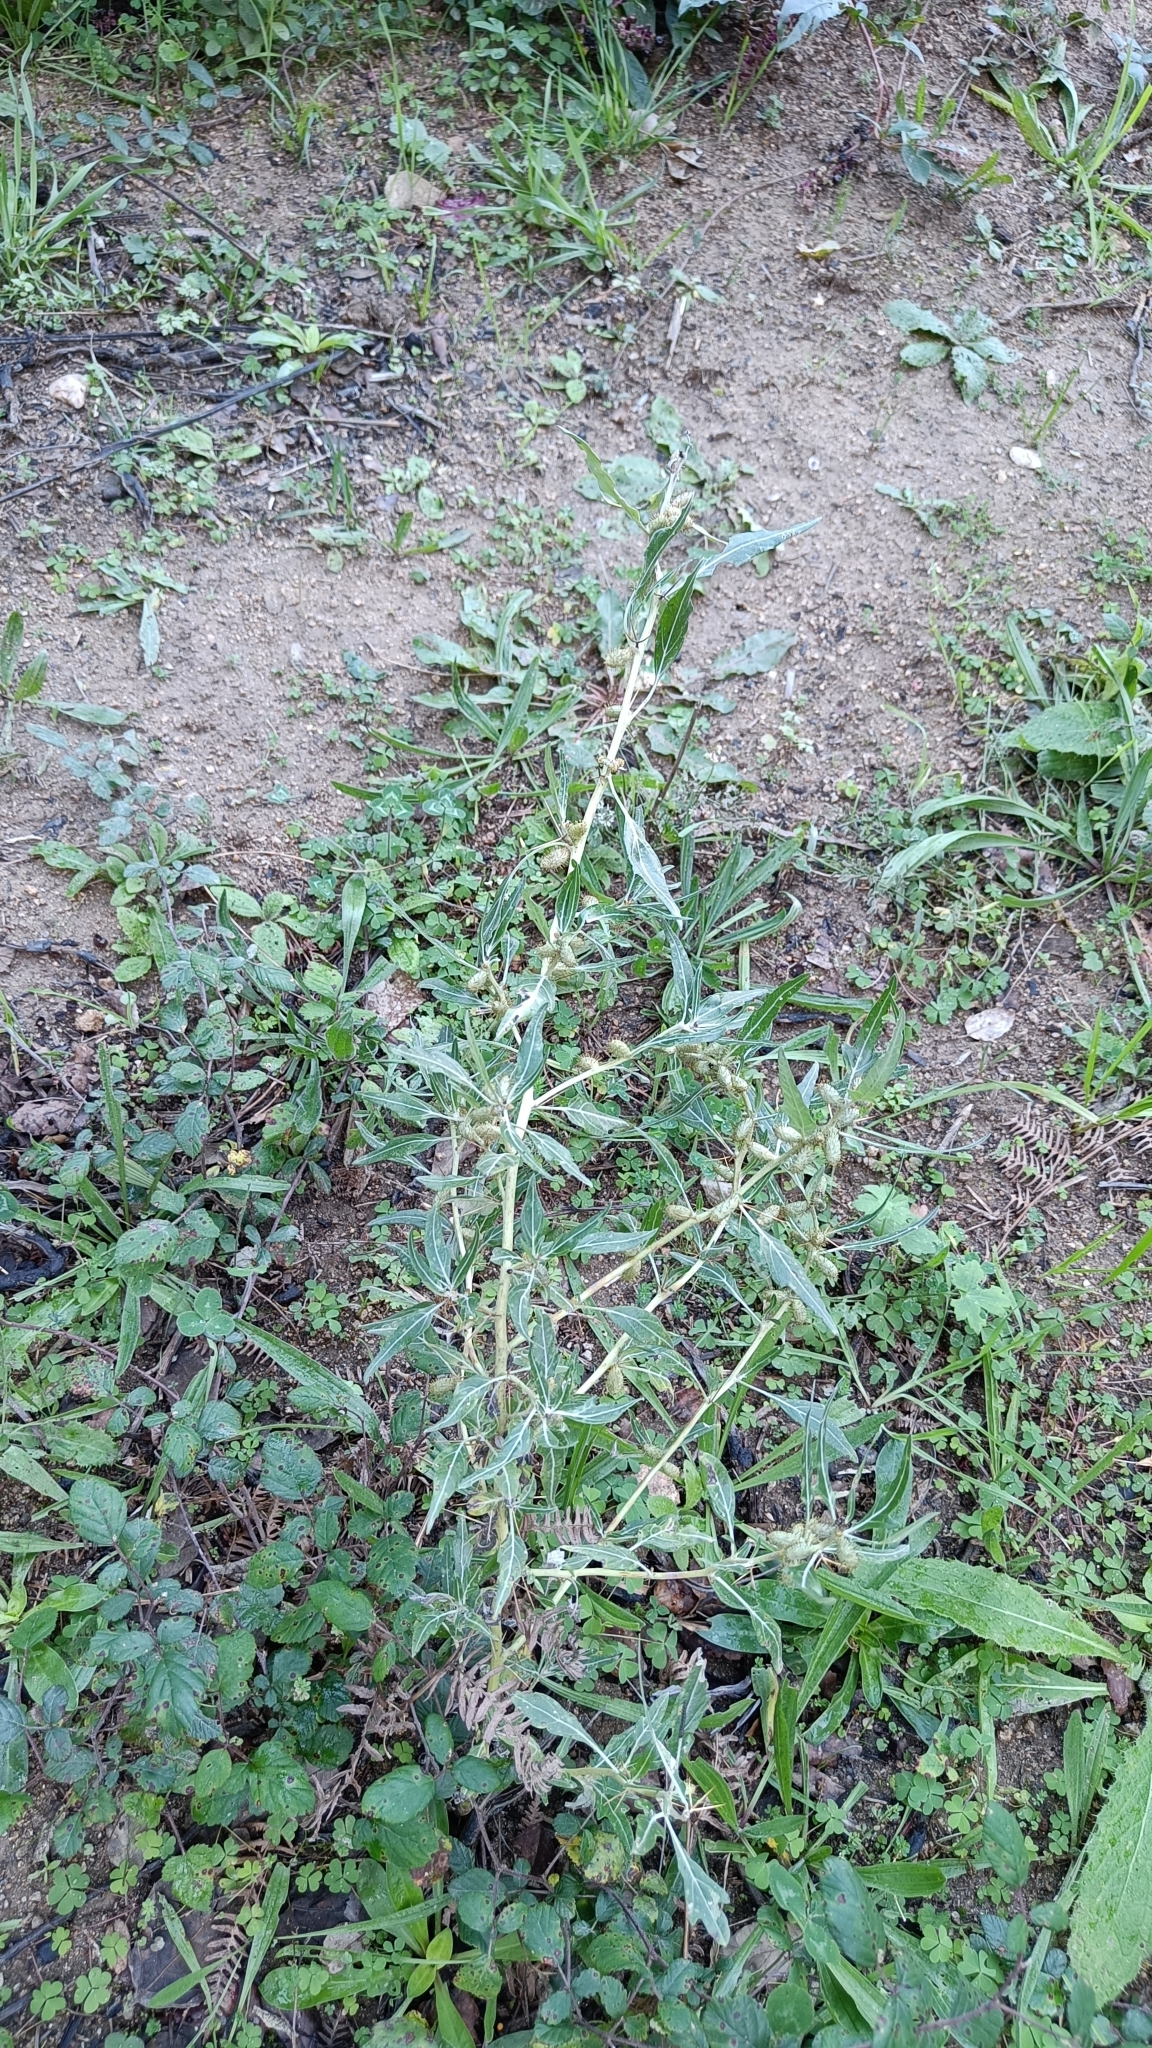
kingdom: Plantae
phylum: Tracheophyta
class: Magnoliopsida
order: Asterales
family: Asteraceae
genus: Xanthium
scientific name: Xanthium spinosum
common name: Spiny cocklebur
